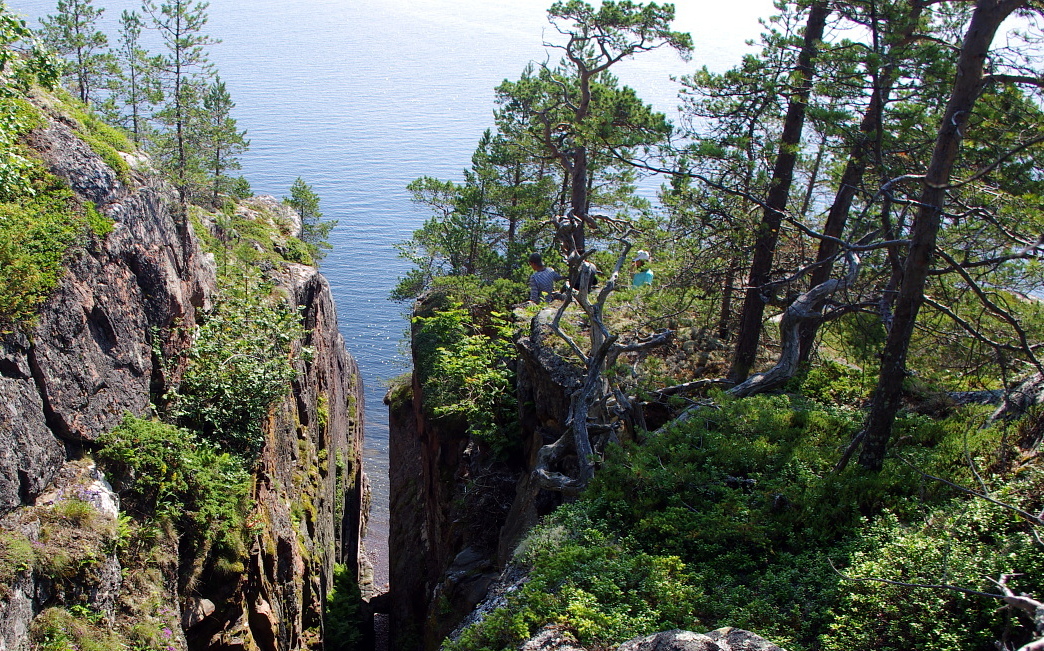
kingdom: Plantae
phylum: Tracheophyta
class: Pinopsida
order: Pinales
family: Pinaceae
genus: Pinus
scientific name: Pinus sylvestris
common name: Scots pine
